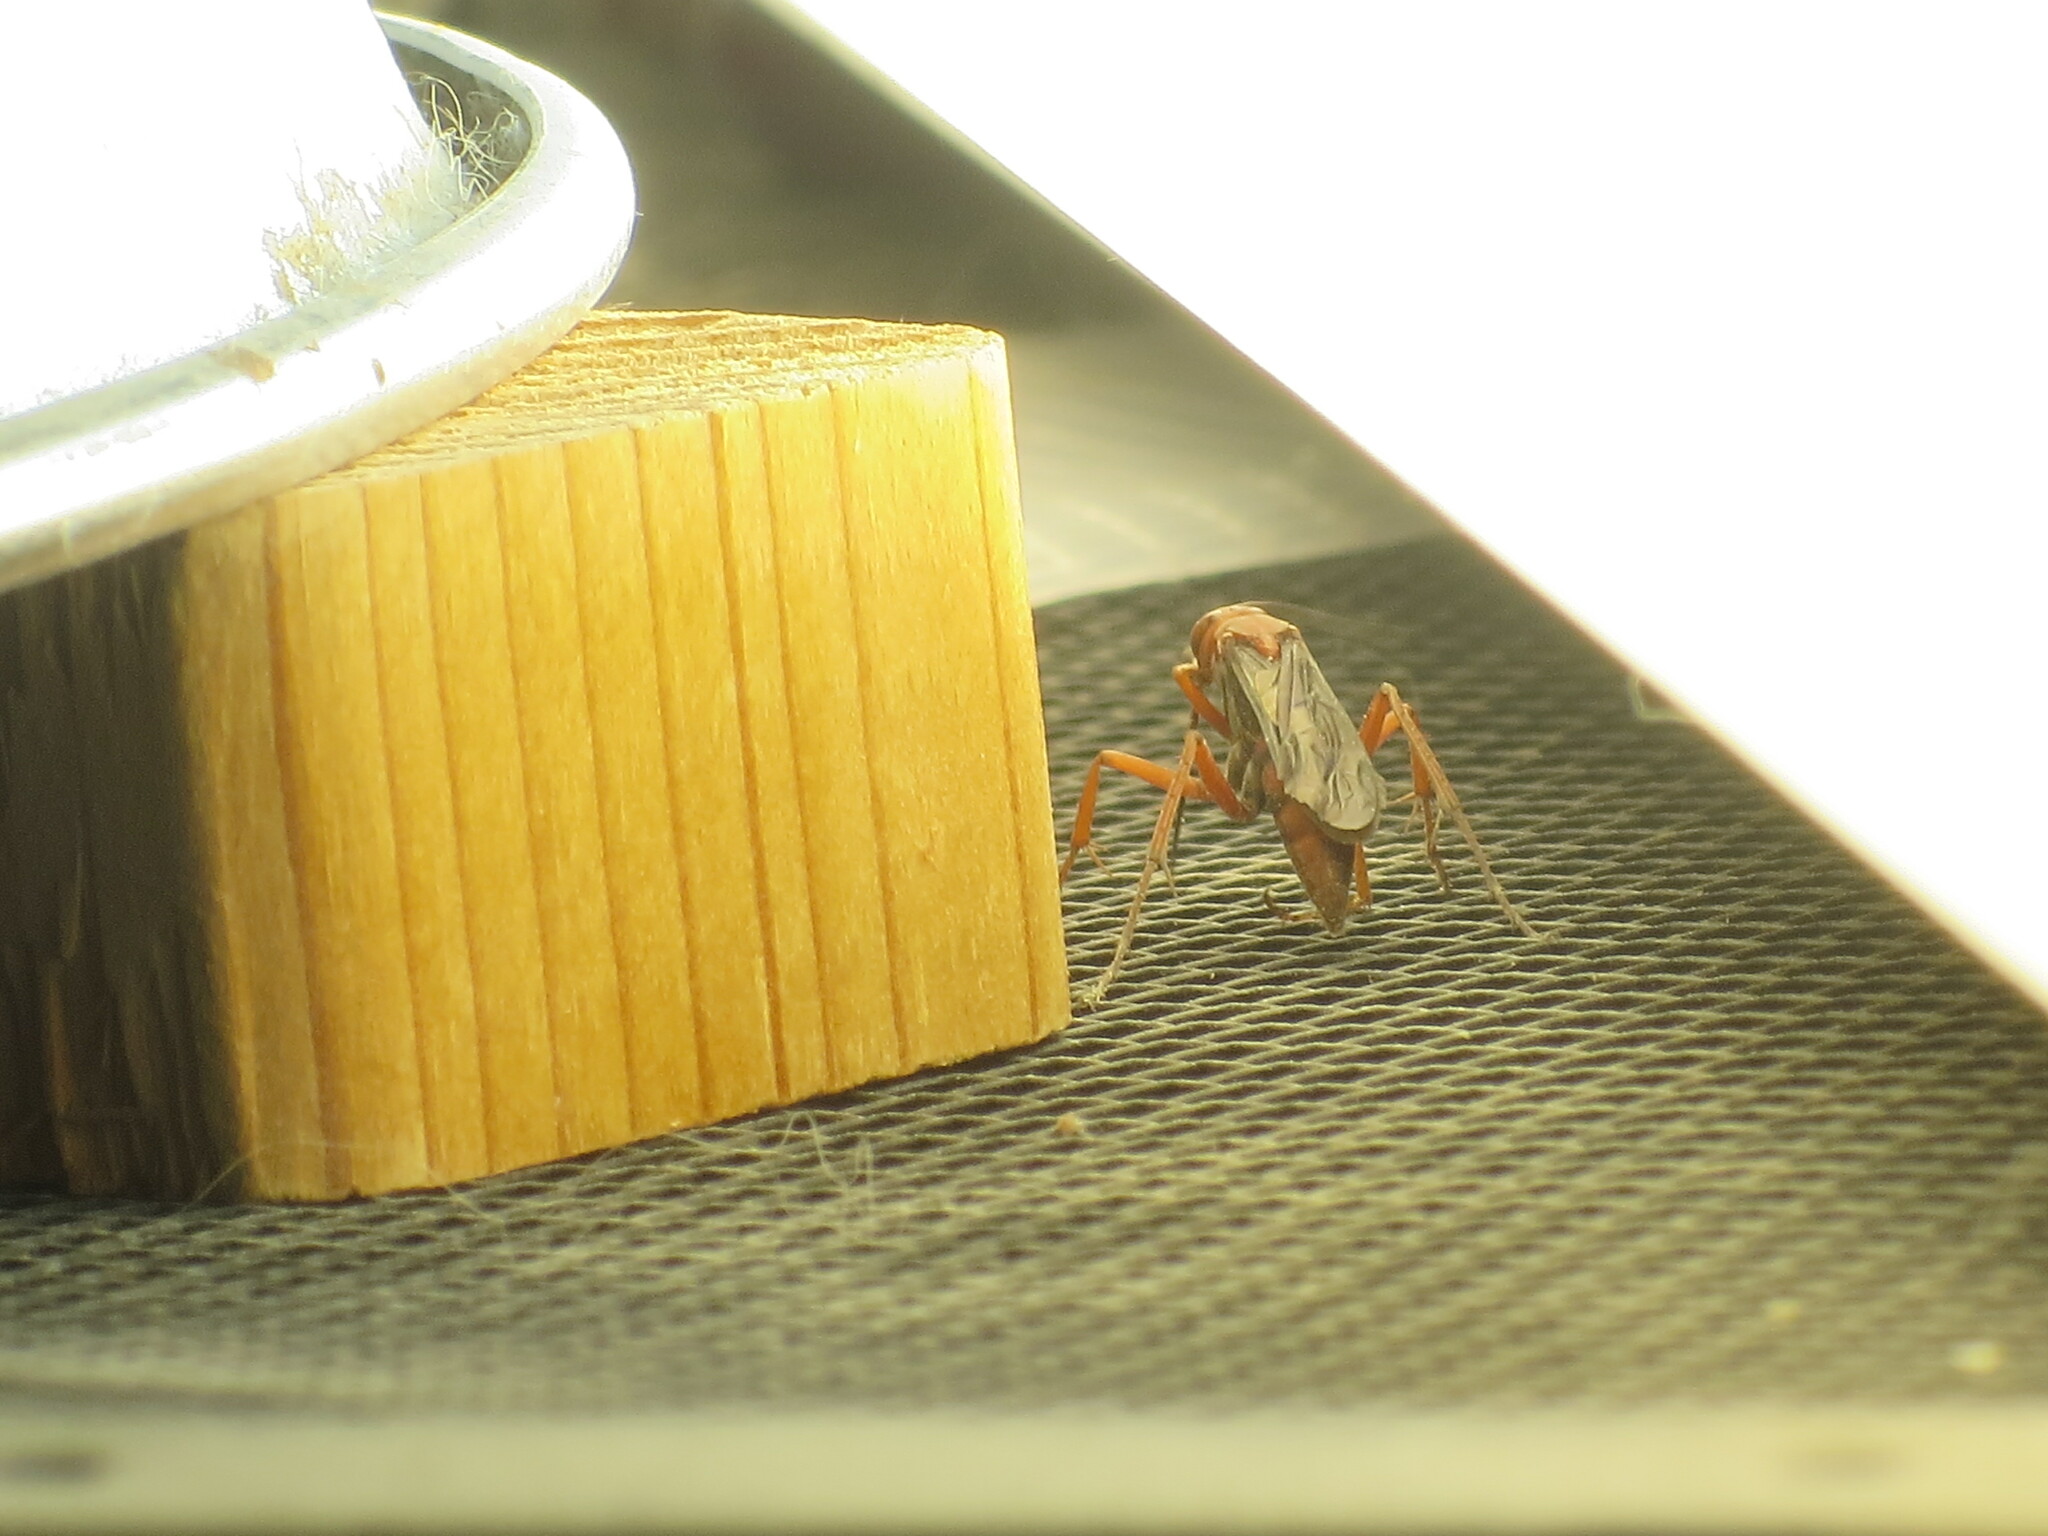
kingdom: Animalia
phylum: Arthropoda
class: Insecta
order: Hymenoptera
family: Pompilidae
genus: Tachypompilus
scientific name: Tachypompilus ferrugineus
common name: Rusty spider wasp
